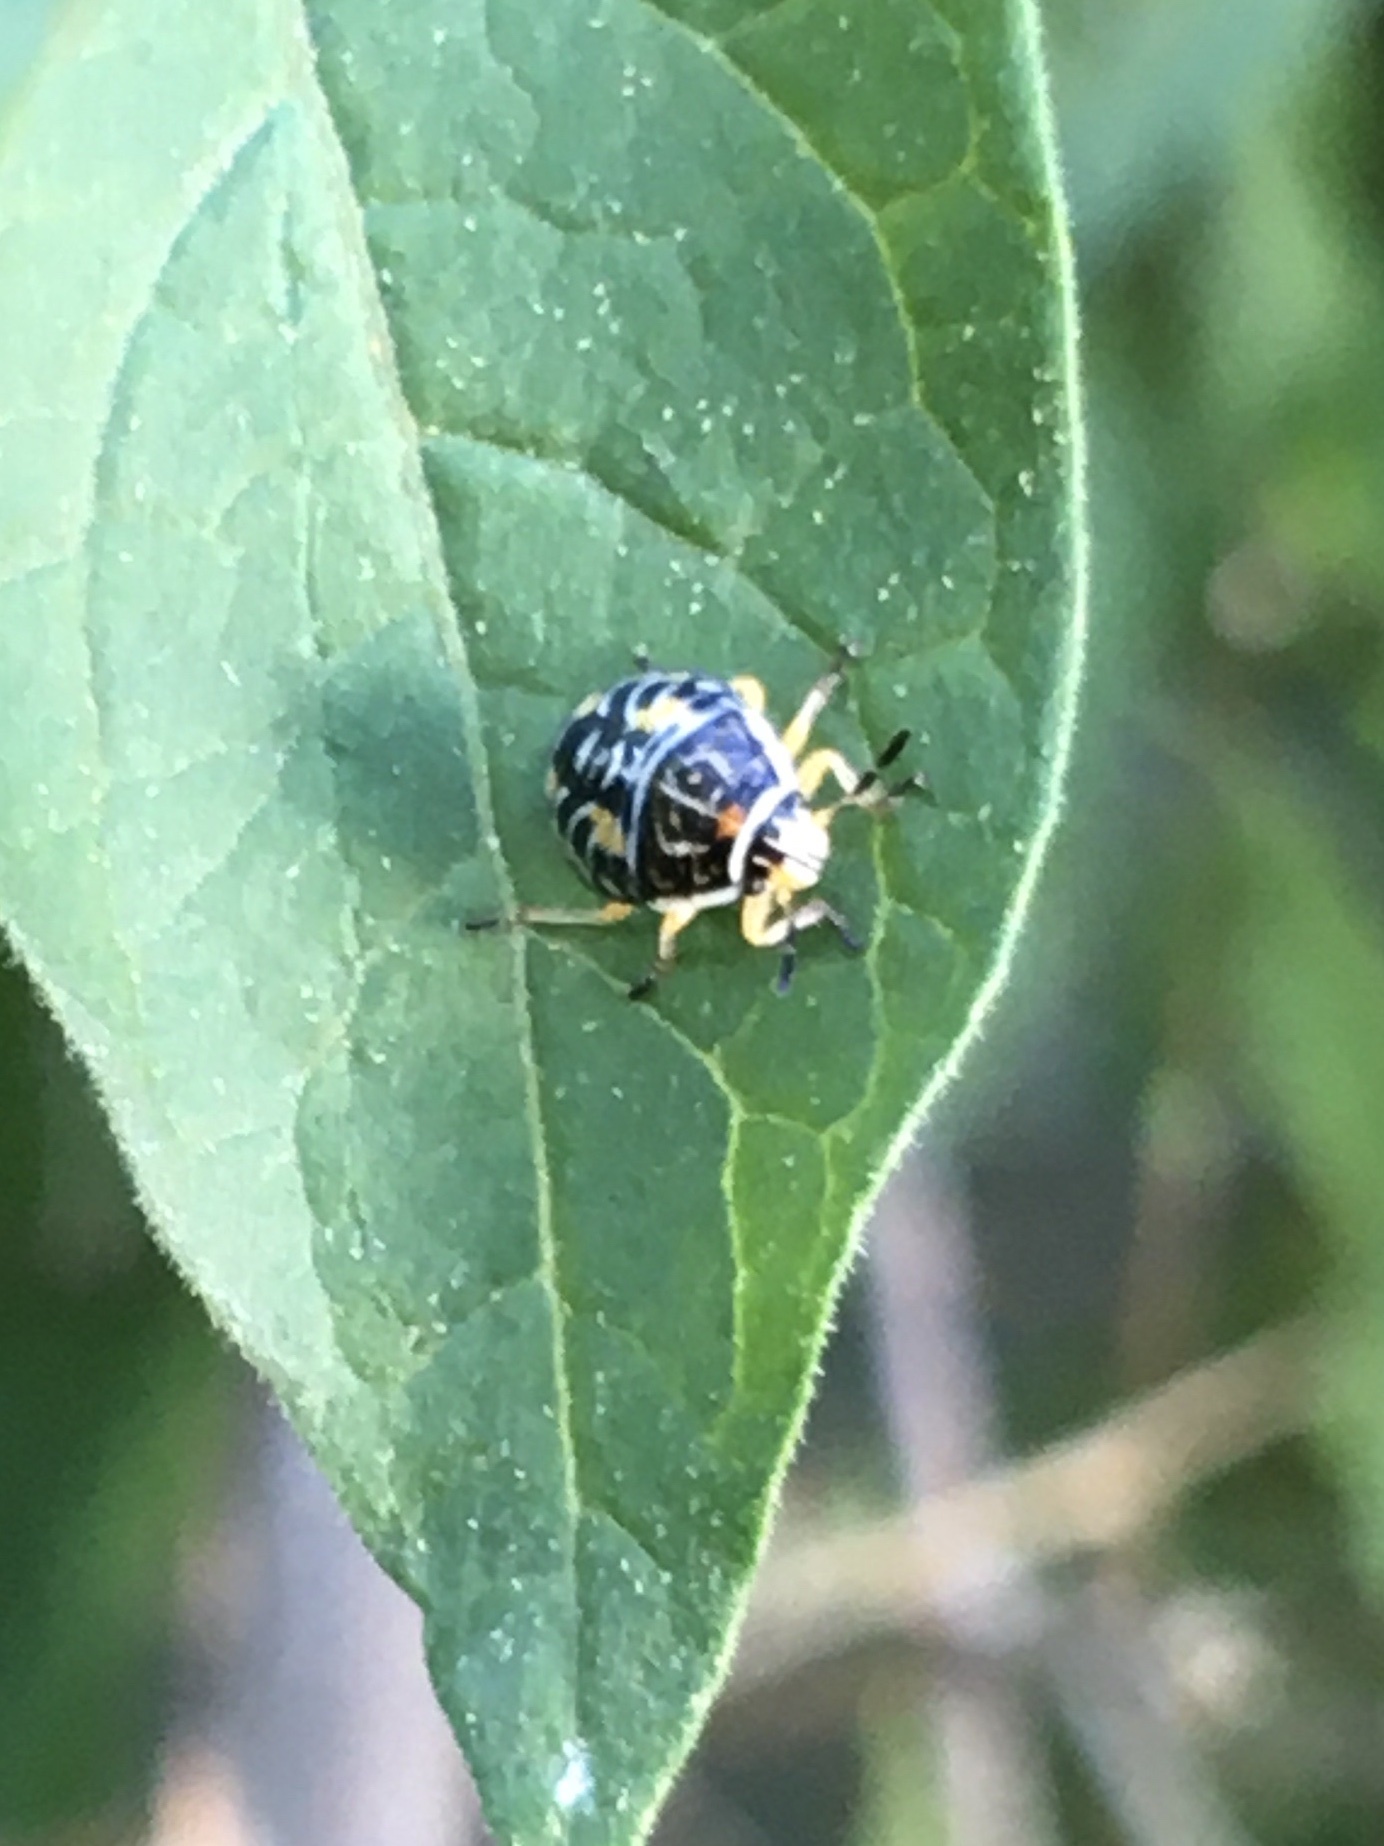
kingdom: Animalia
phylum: Arthropoda
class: Insecta
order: Hemiptera
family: Pentatomidae
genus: Antestiopsis
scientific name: Antestiopsis thunbergii
